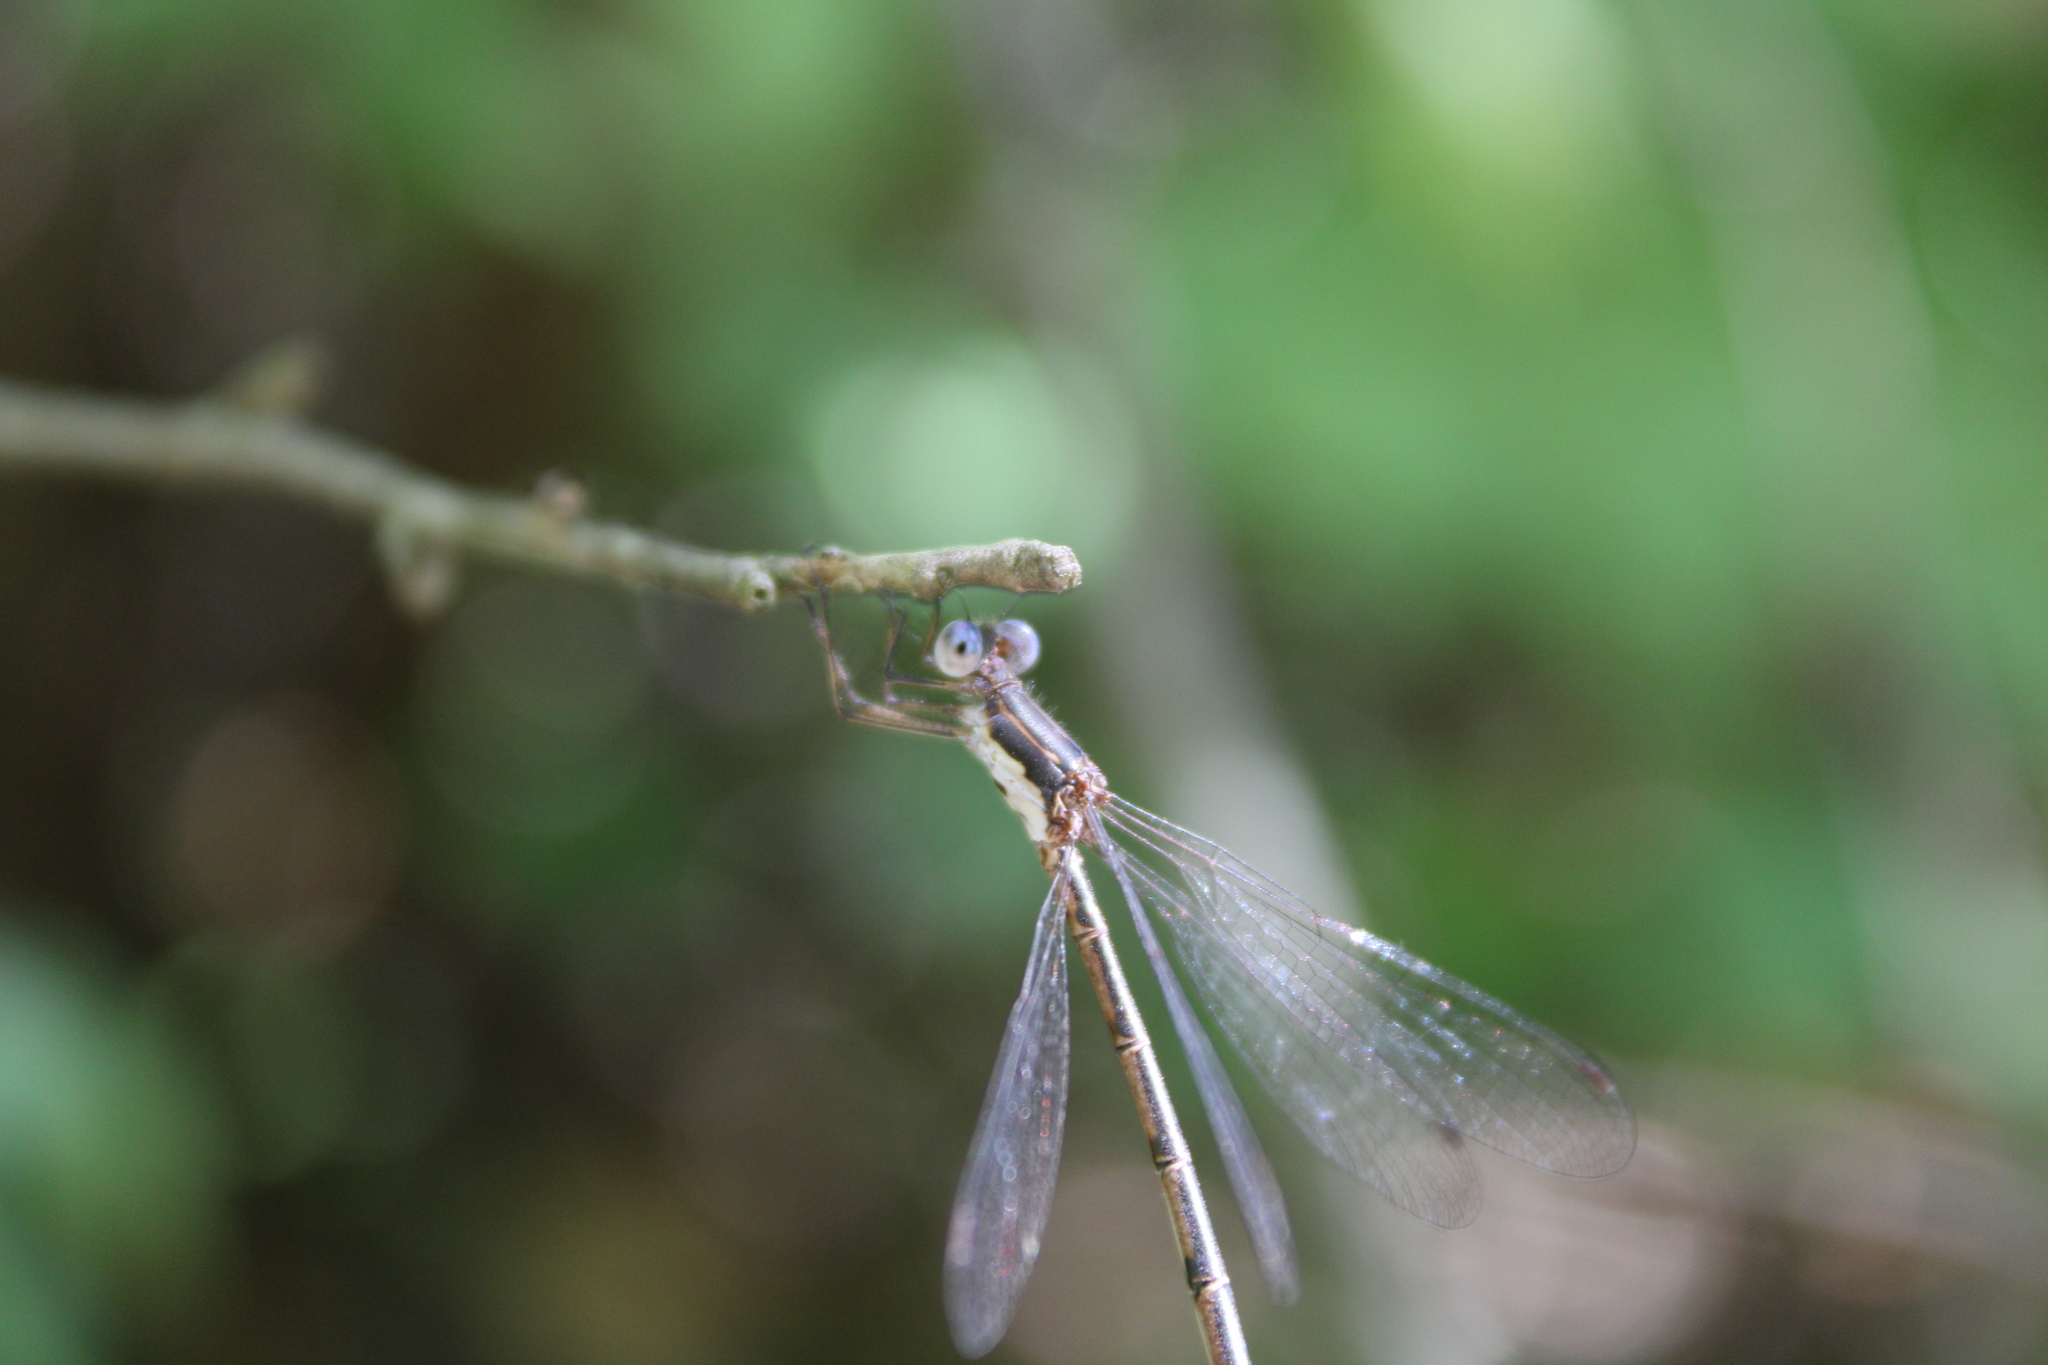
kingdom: Animalia
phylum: Arthropoda
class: Insecta
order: Odonata
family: Lestidae
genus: Lestes
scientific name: Lestes congener
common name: Spotted spreadwing
